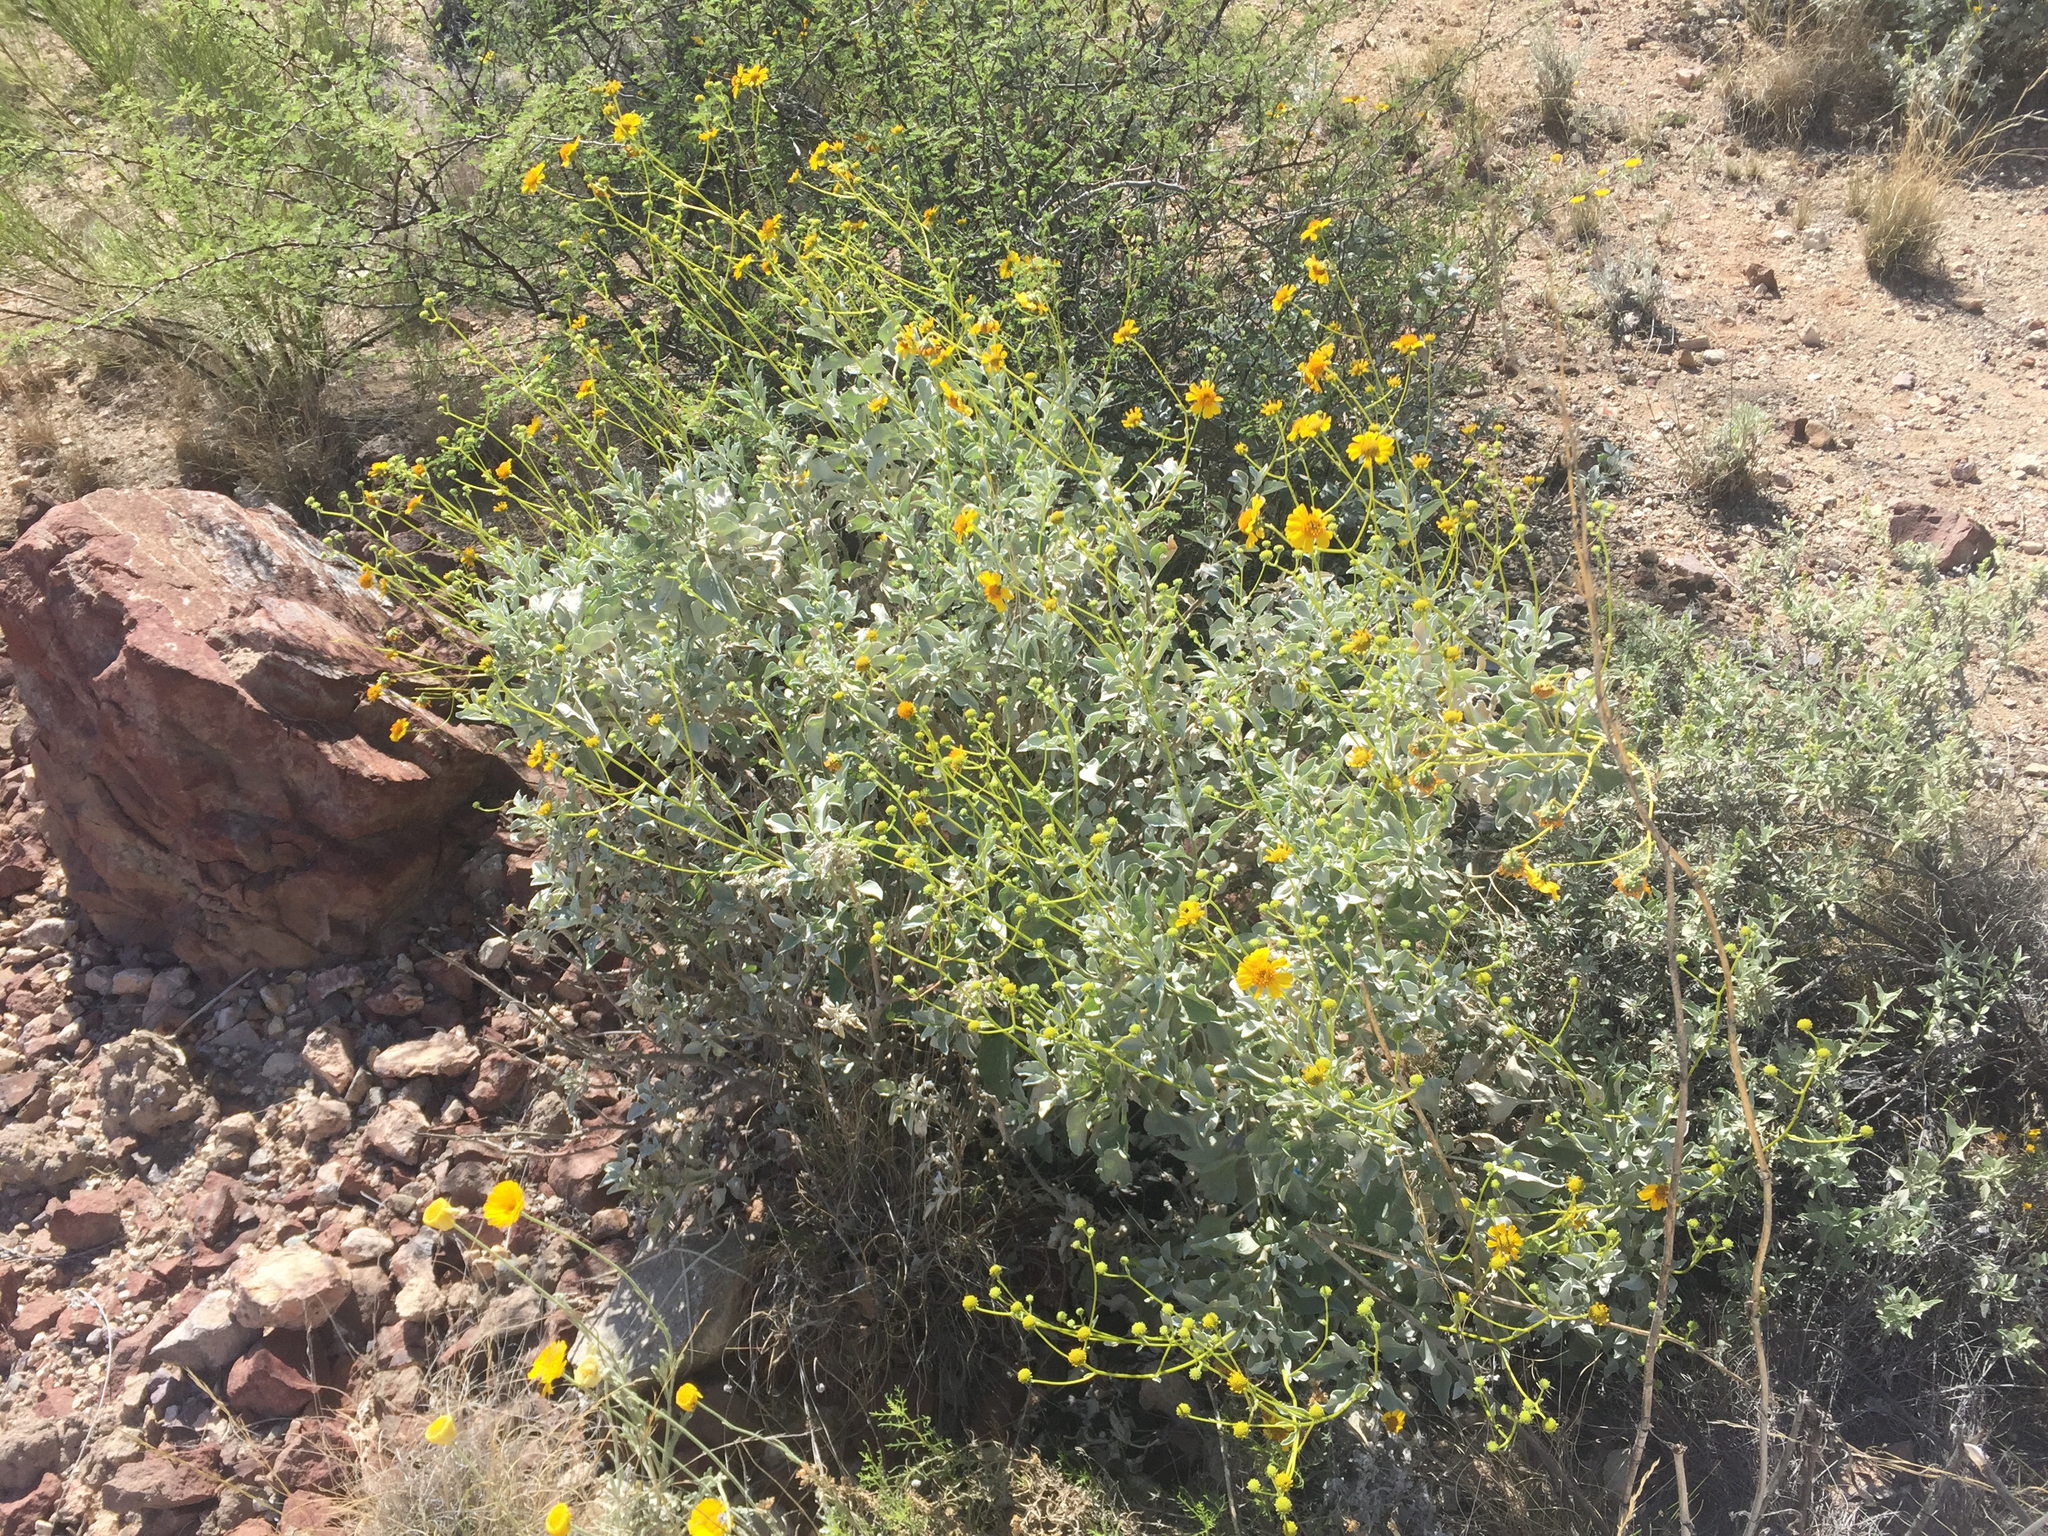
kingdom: Plantae
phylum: Tracheophyta
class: Magnoliopsida
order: Asterales
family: Asteraceae
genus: Encelia
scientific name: Encelia farinosa
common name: Brittlebush
